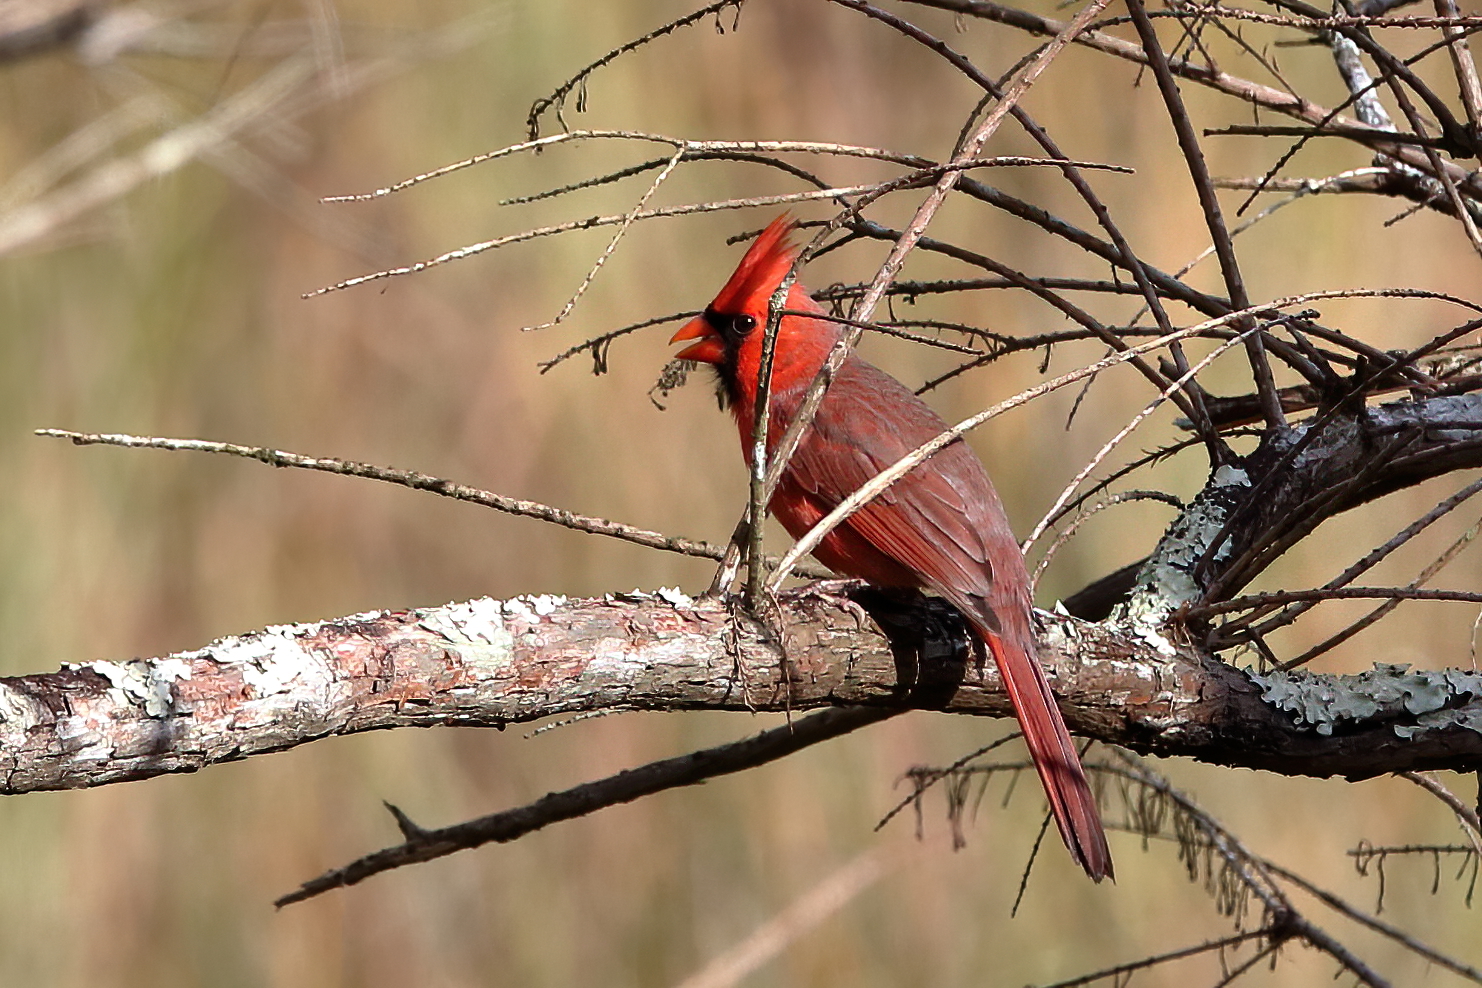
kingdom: Animalia
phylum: Chordata
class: Aves
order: Passeriformes
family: Cardinalidae
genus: Cardinalis
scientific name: Cardinalis cardinalis
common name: Northern cardinal
